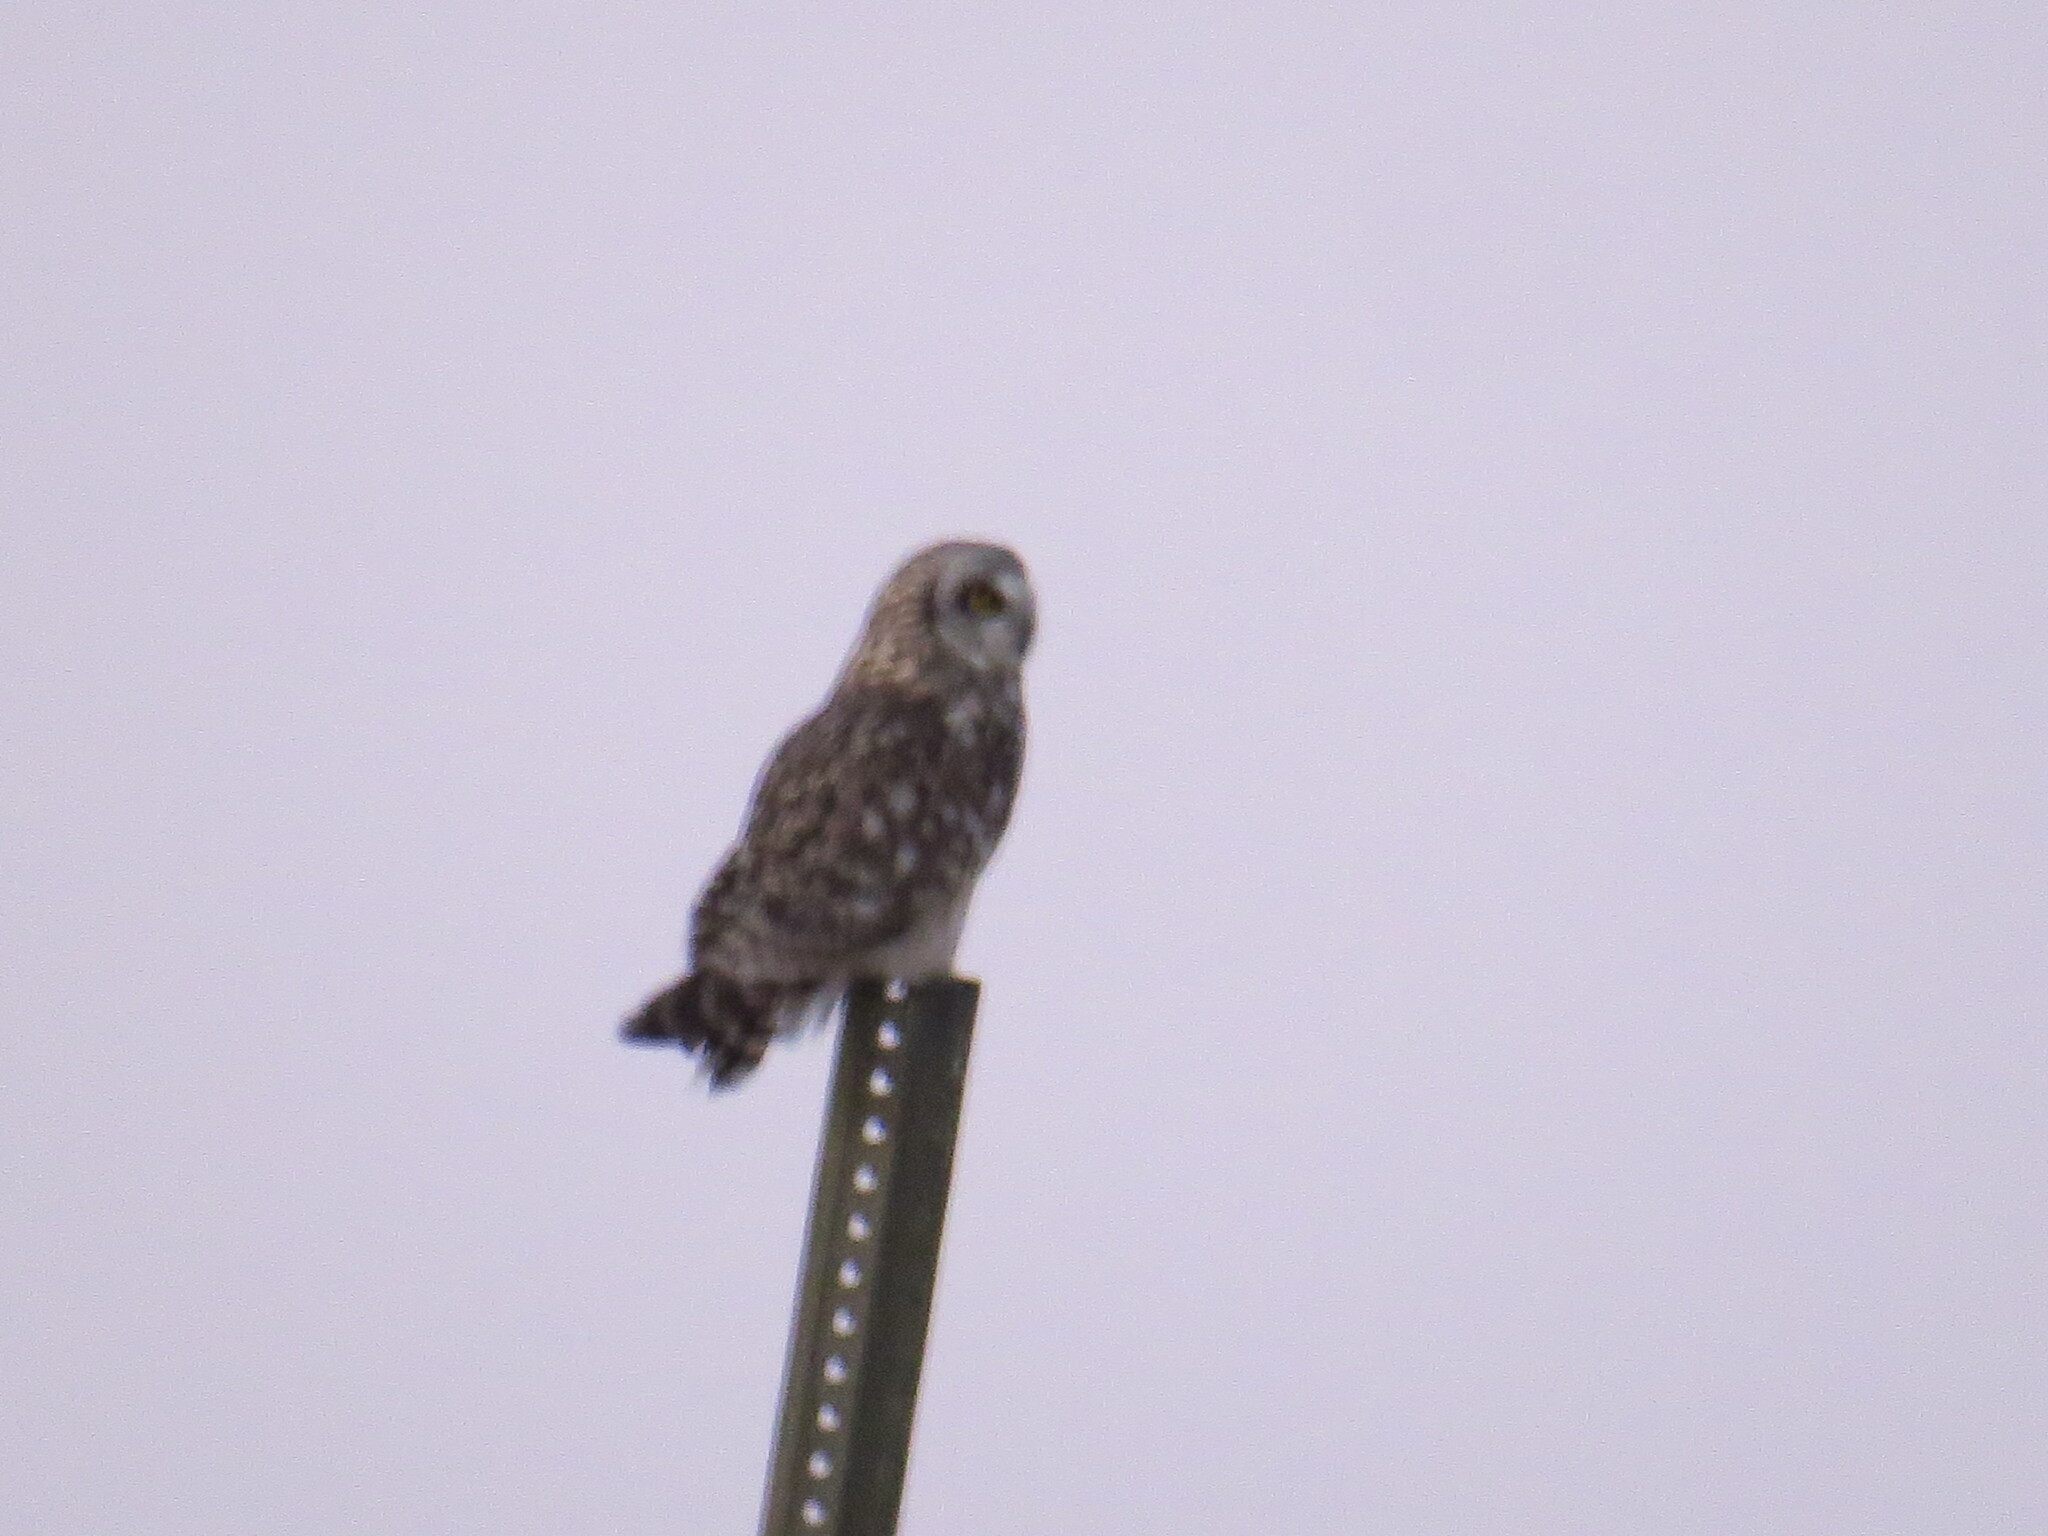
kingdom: Animalia
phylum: Chordata
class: Aves
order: Strigiformes
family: Strigidae
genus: Asio
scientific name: Asio flammeus
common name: Short-eared owl
